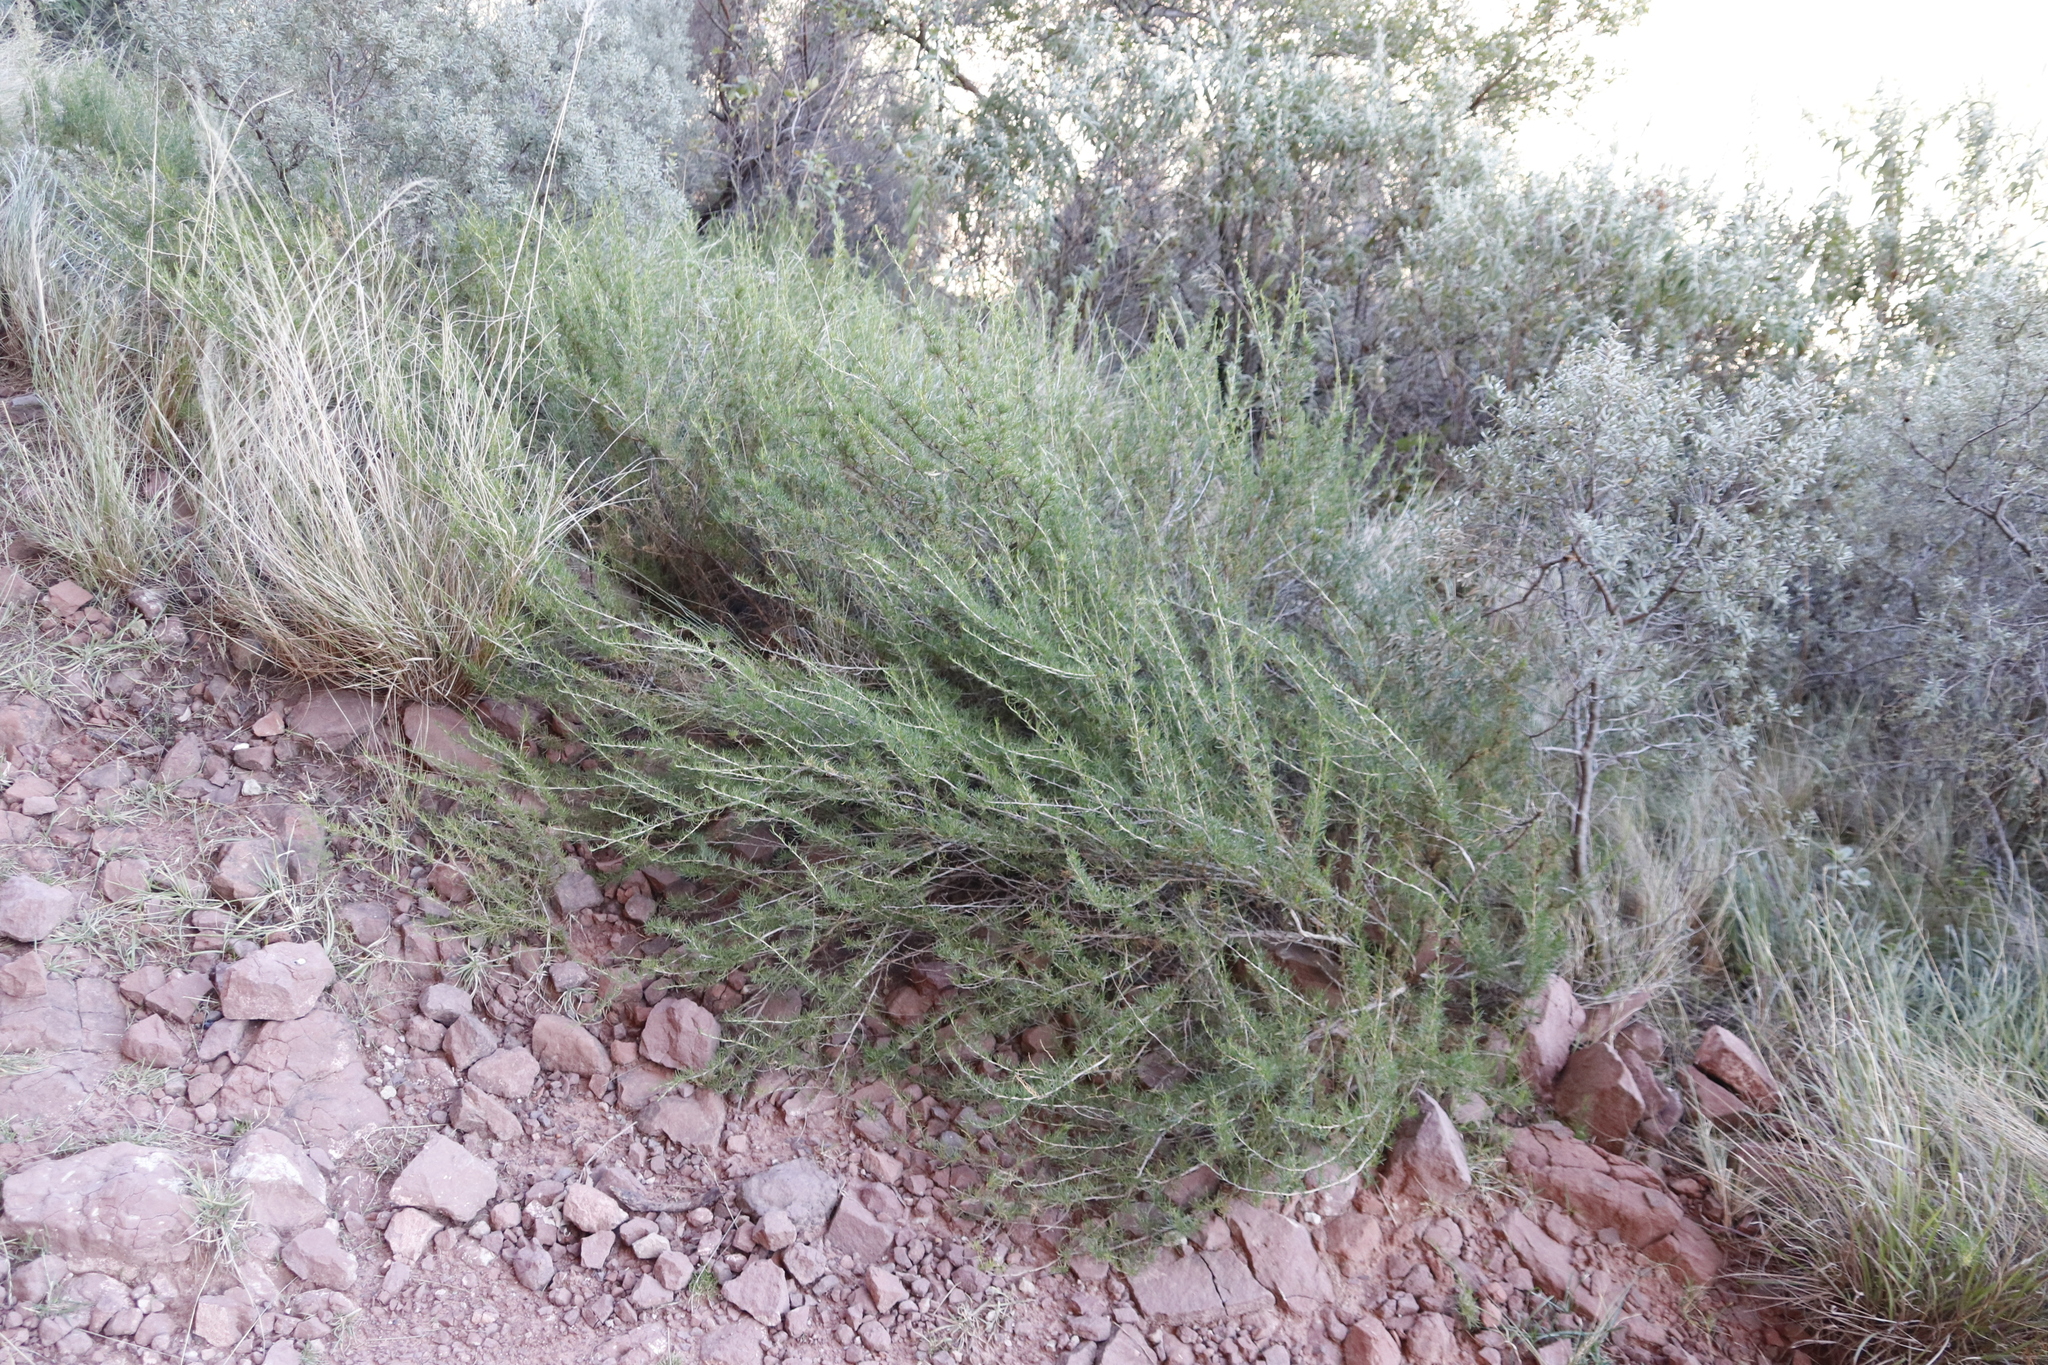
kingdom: Plantae
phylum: Tracheophyta
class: Magnoliopsida
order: Asterales
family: Asteraceae
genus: Felicia
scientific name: Felicia filifolia
